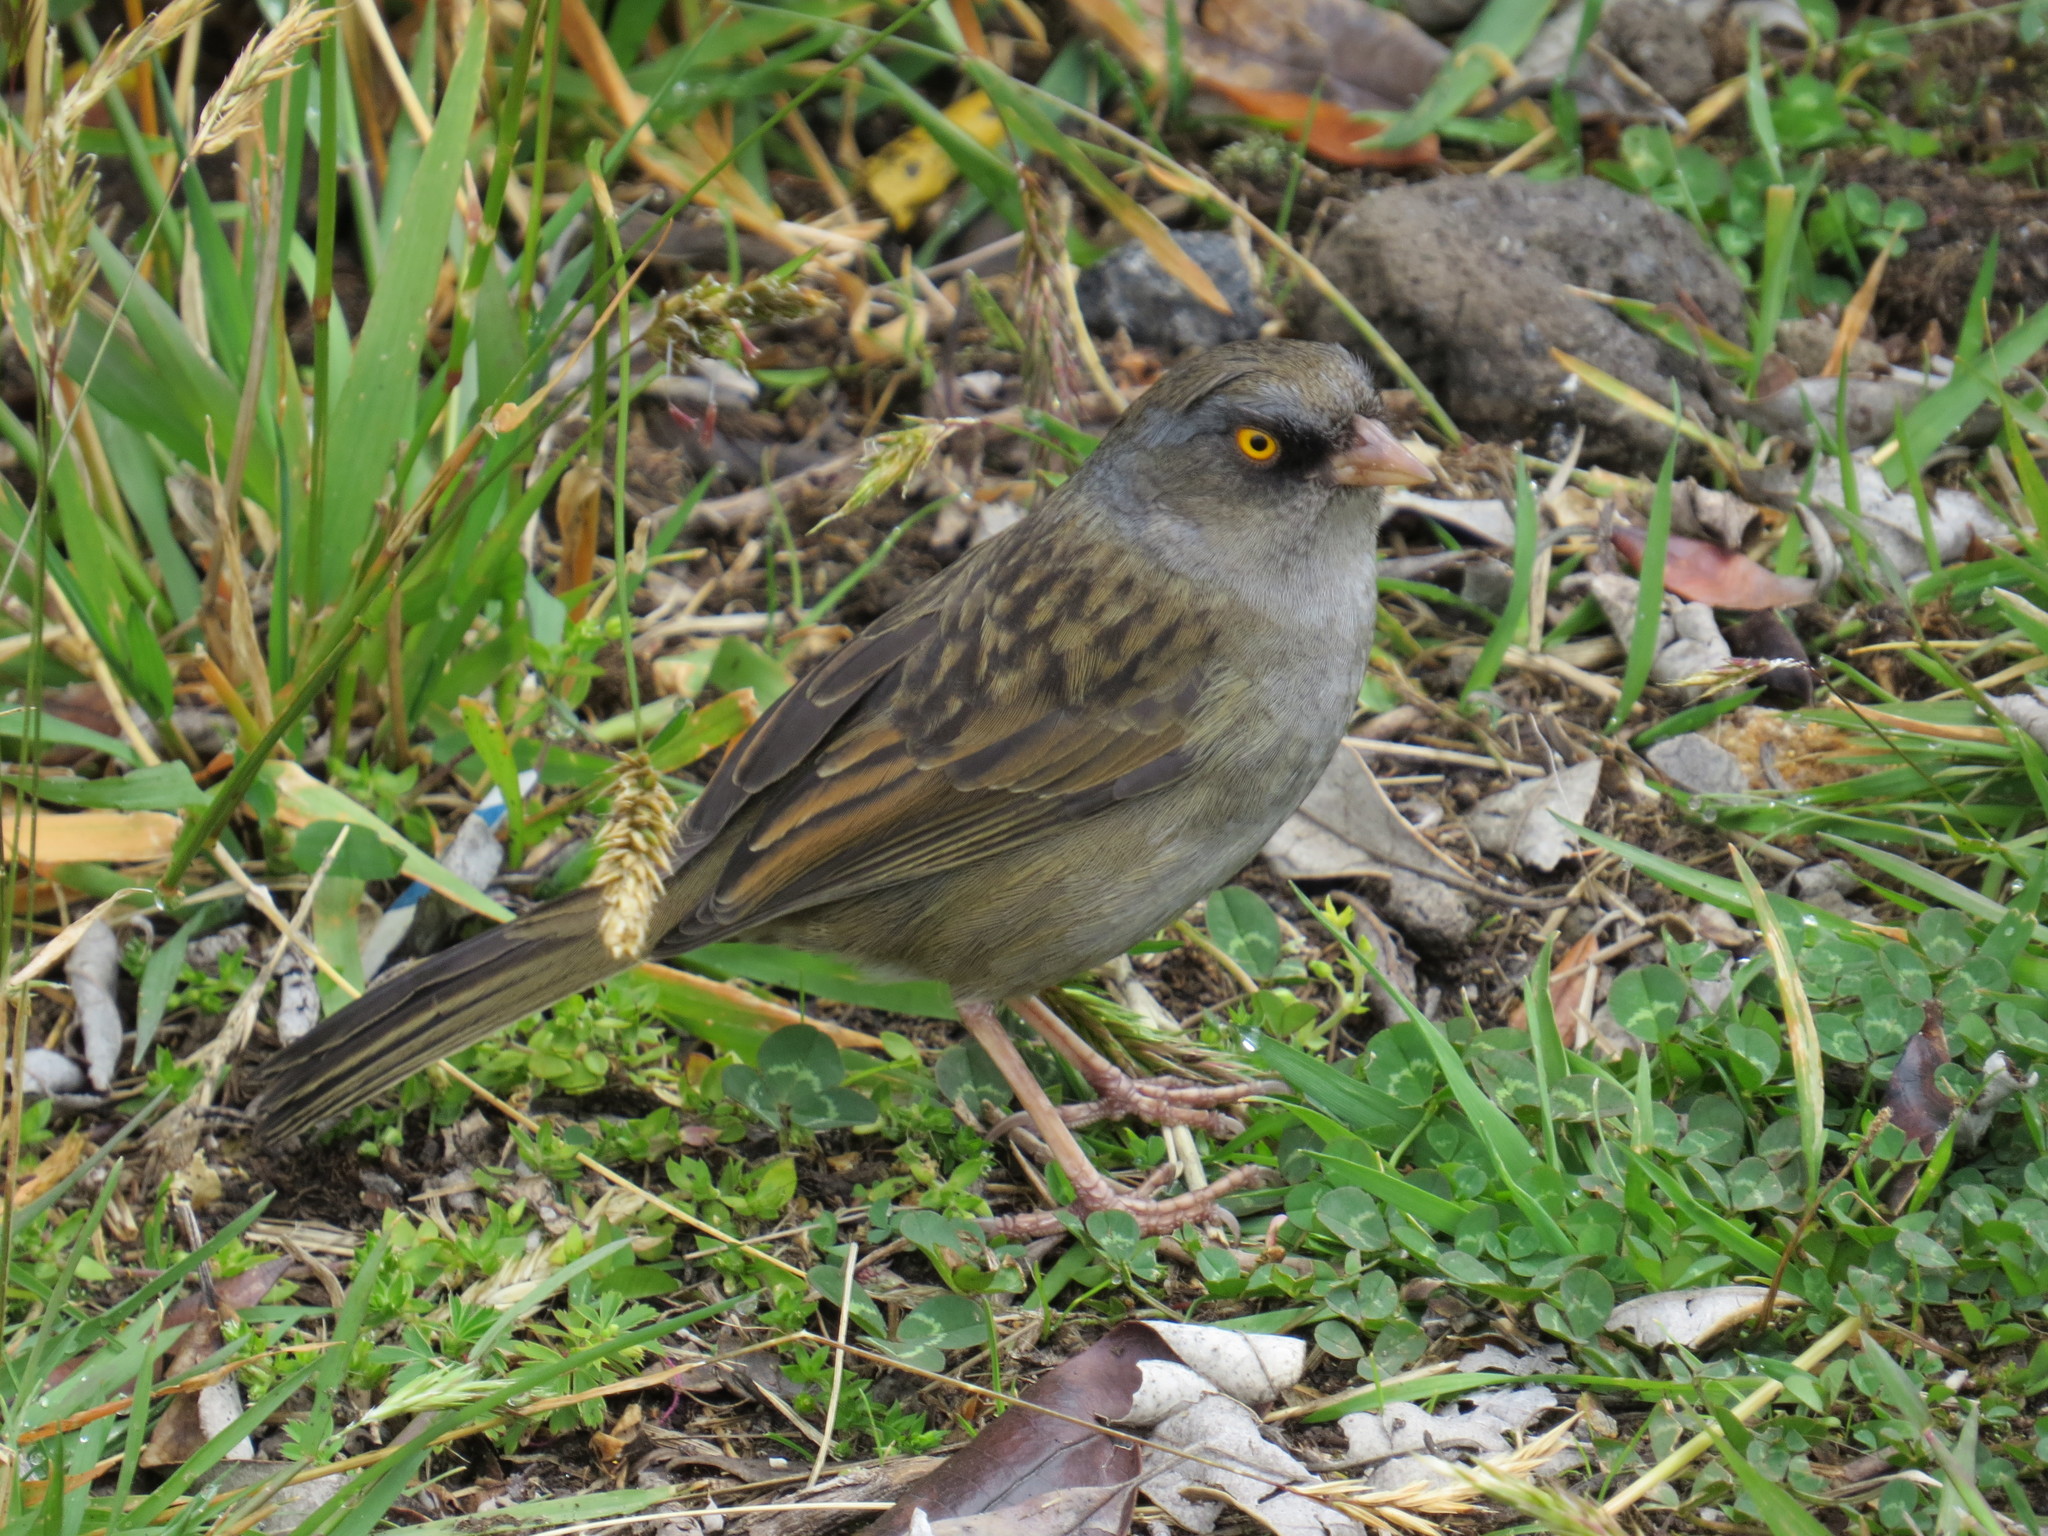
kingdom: Animalia
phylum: Chordata
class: Aves
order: Passeriformes
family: Passerellidae
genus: Junco
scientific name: Junco vulcani
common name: Volcano junco
